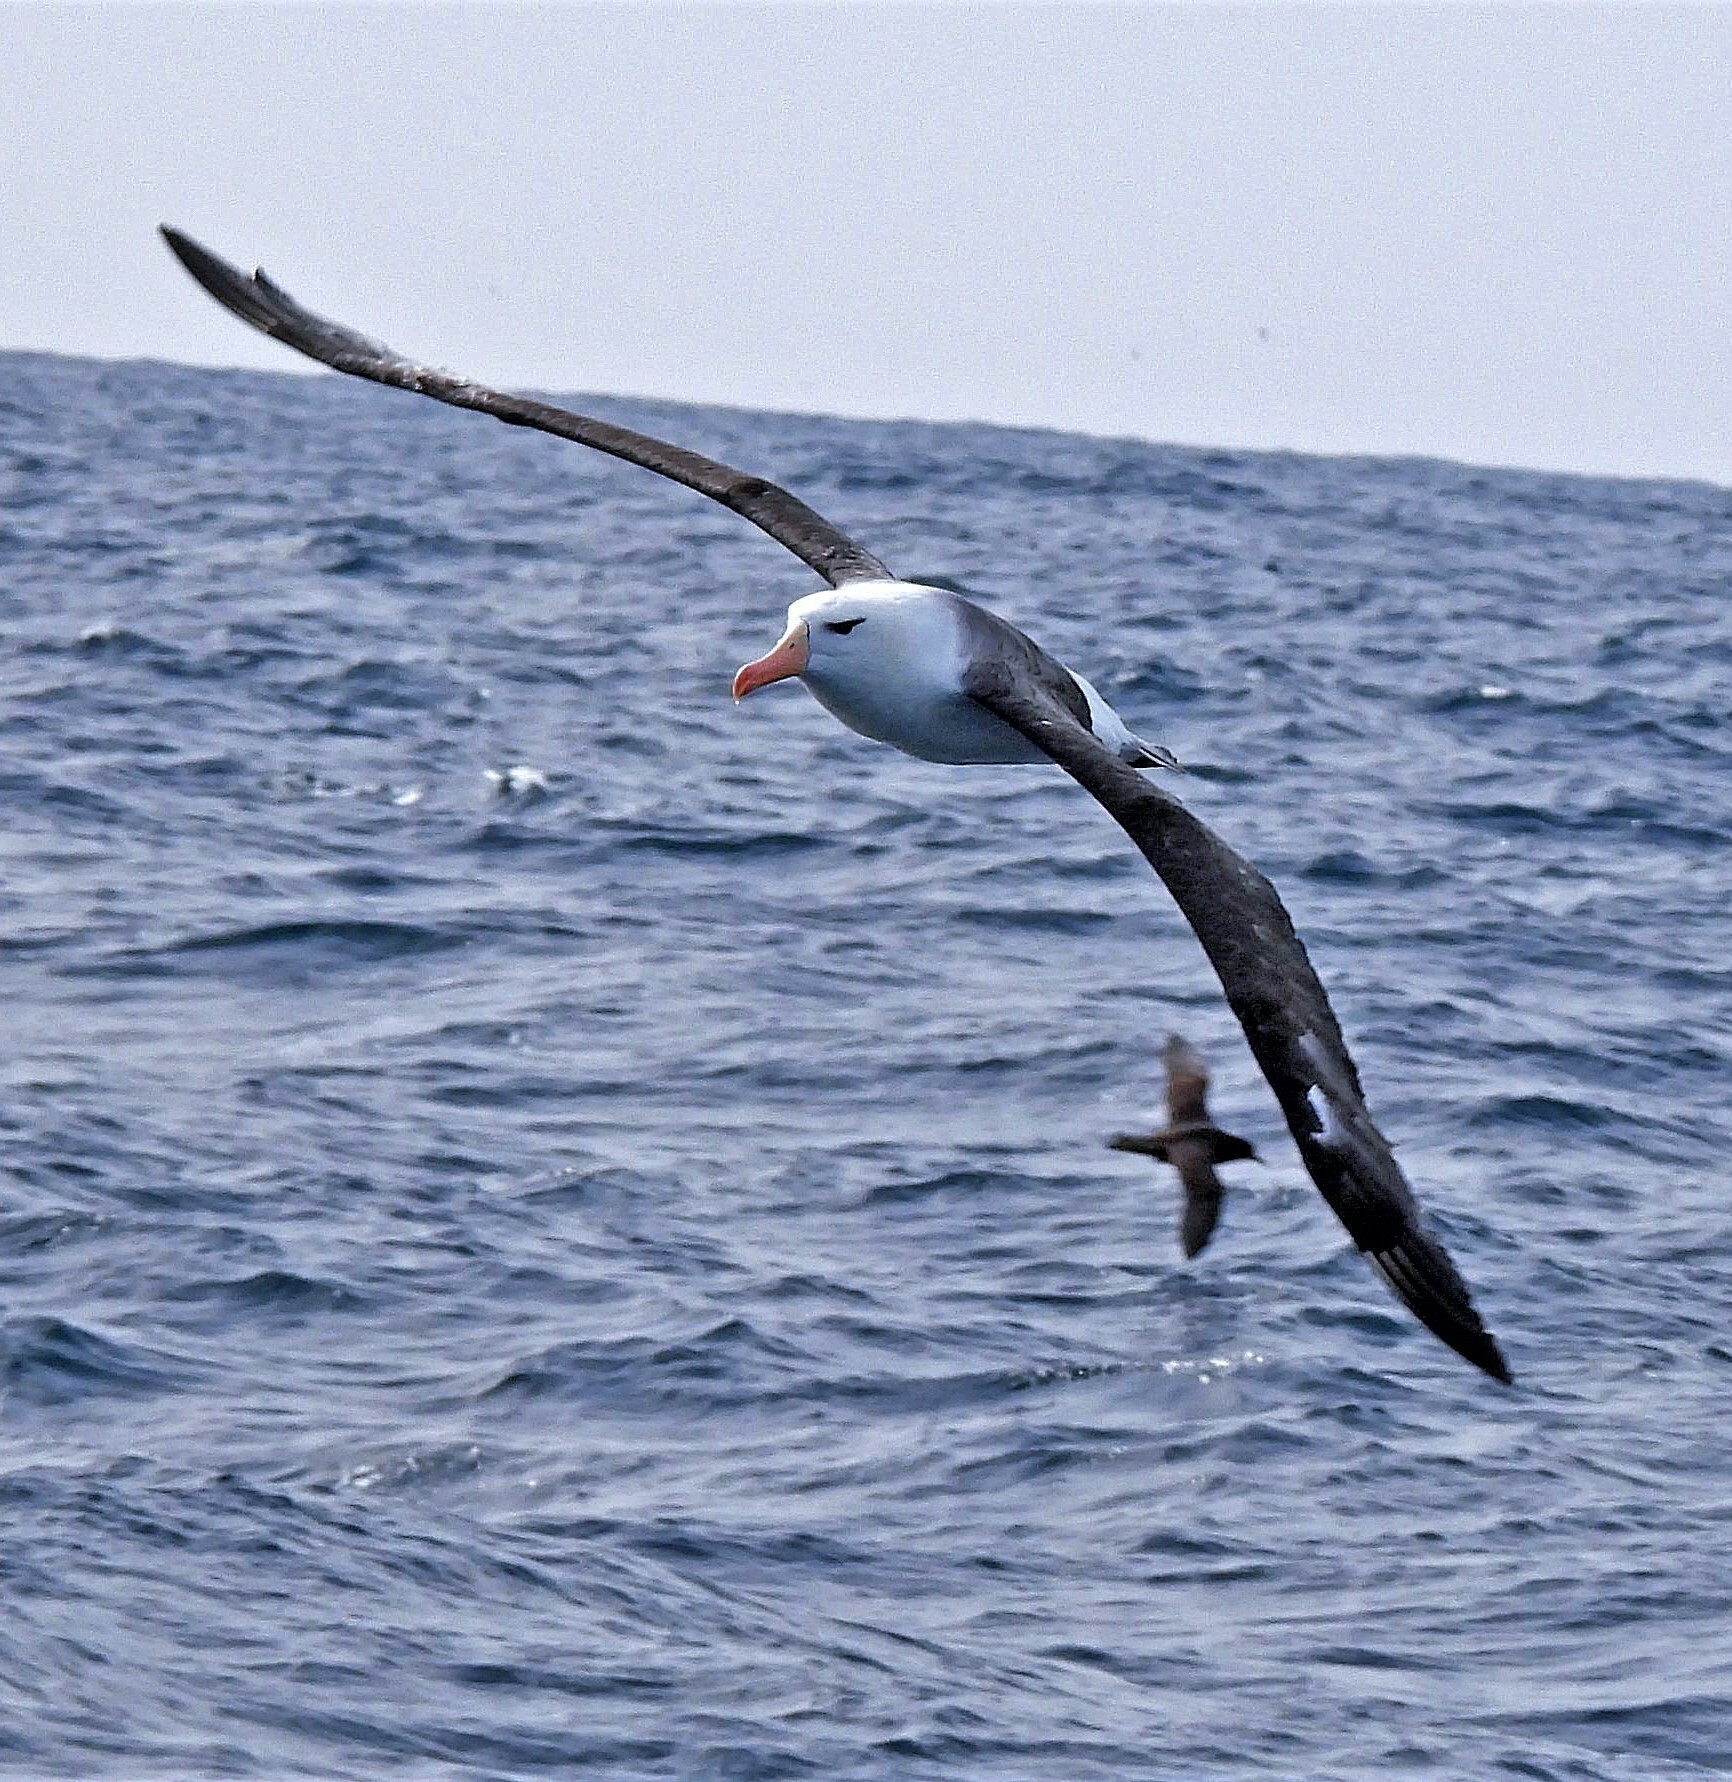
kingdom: Animalia
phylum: Chordata
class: Aves
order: Procellariiformes
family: Diomedeidae
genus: Thalassarche
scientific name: Thalassarche melanophris
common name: Black-browed albatross
